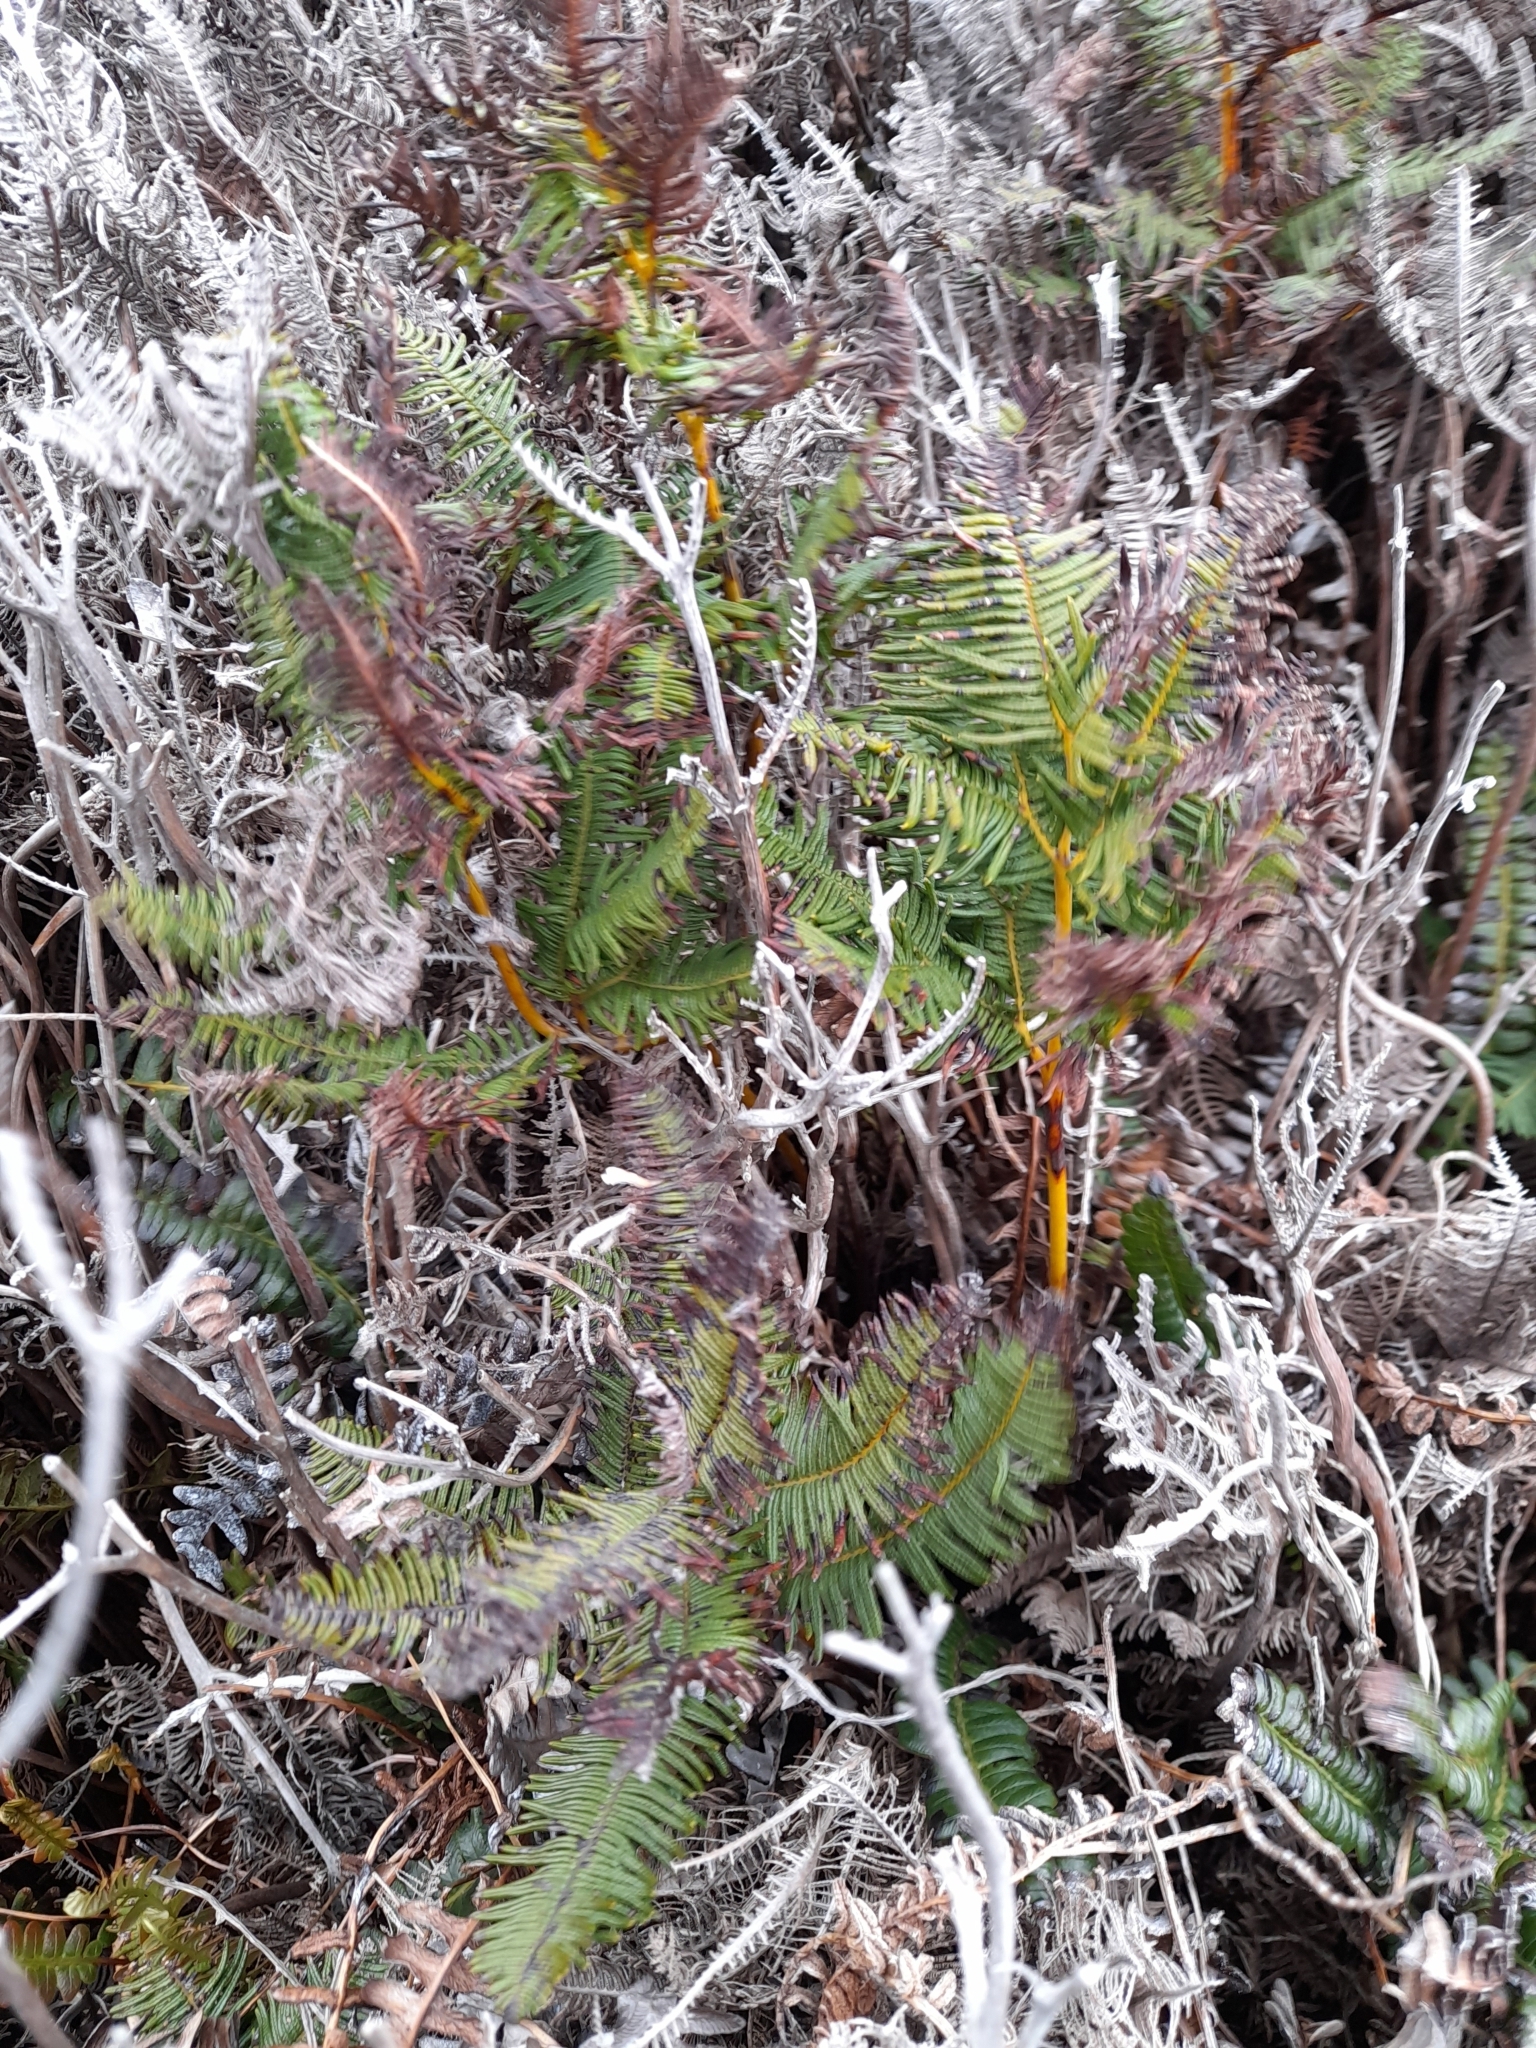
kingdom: Plantae
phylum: Tracheophyta
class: Polypodiopsida
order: Gleicheniales
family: Gleicheniaceae
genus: Sticherus
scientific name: Sticherus cryptocarpus
